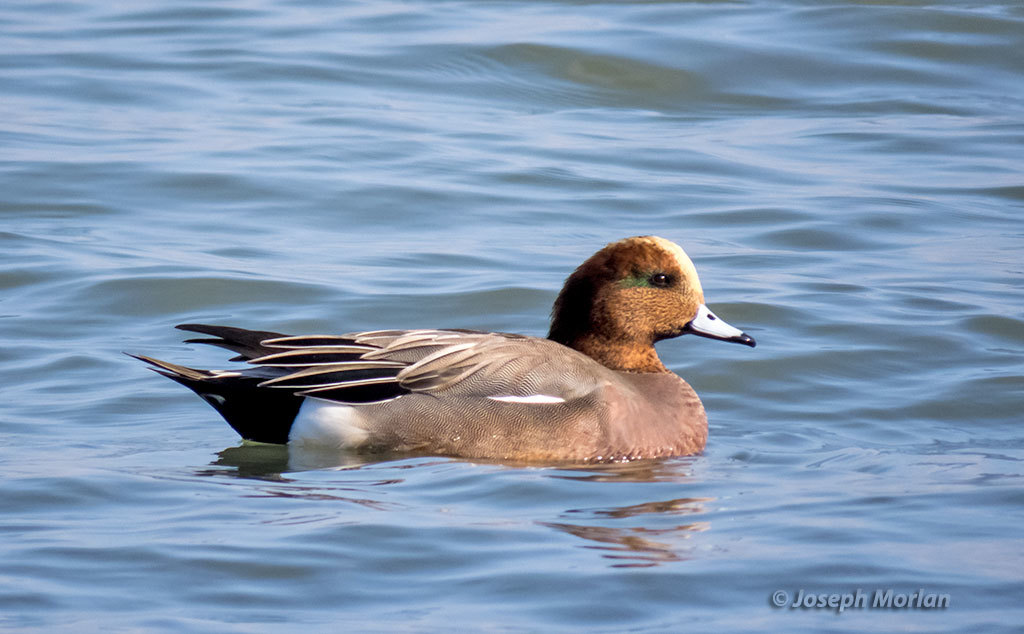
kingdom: Animalia
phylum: Chordata
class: Aves
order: Anseriformes
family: Anatidae
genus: Mareca
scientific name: Mareca
